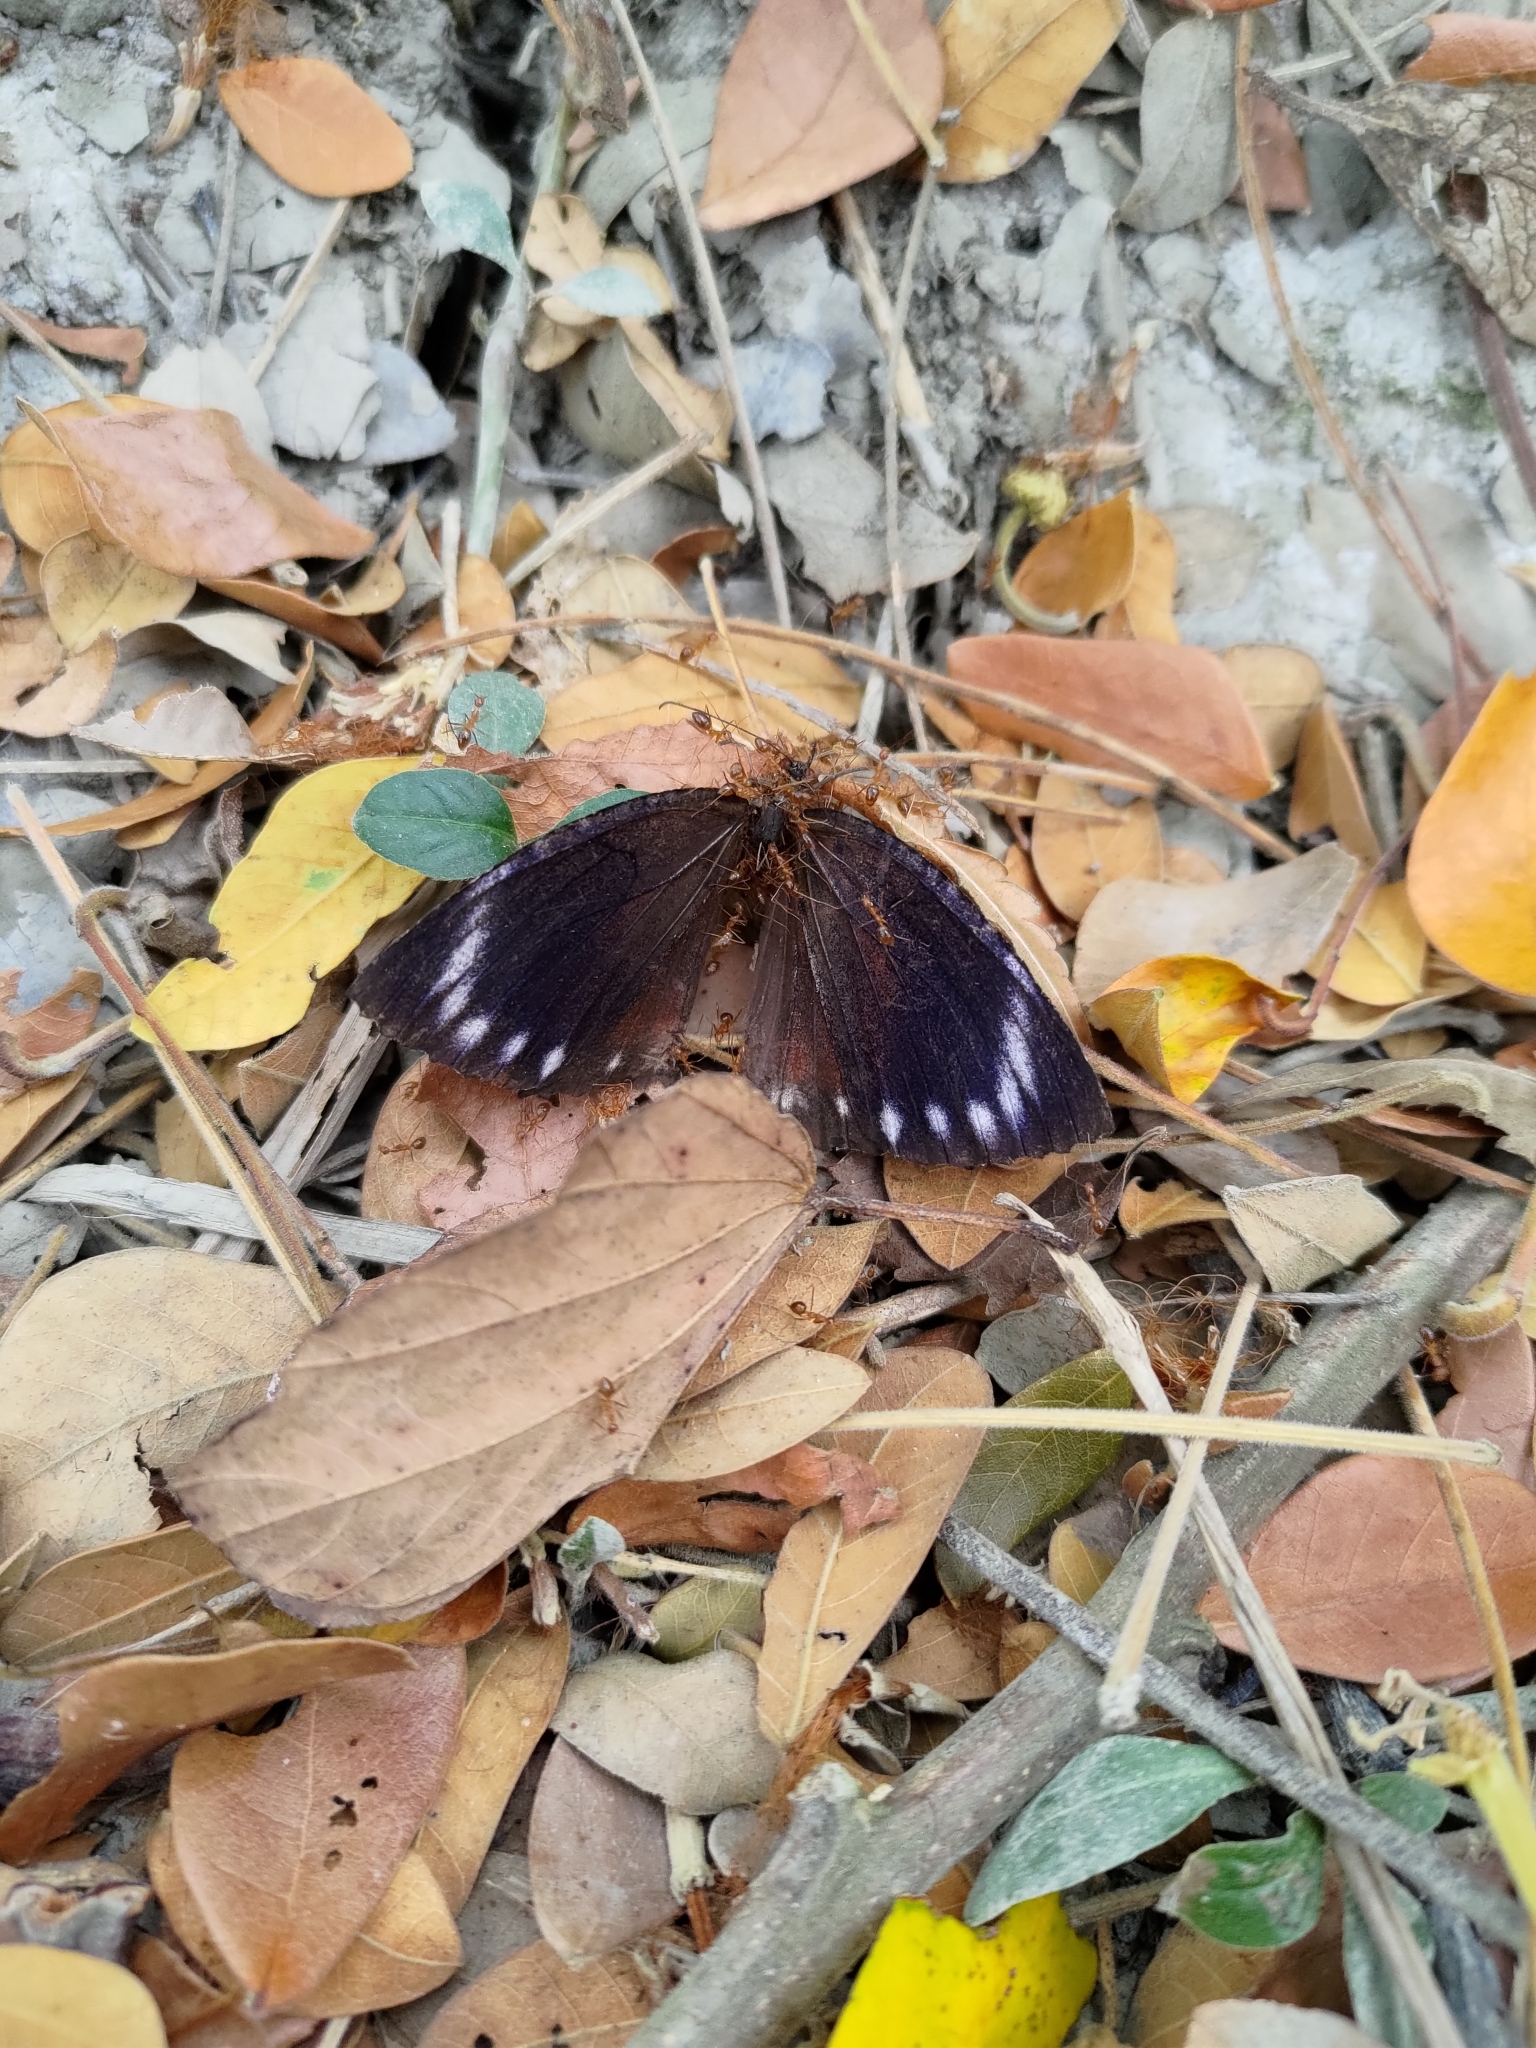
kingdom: Animalia
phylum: Arthropoda
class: Insecta
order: Hymenoptera
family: Formicidae
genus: Anoplolepis
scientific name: Anoplolepis gracilipes
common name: Ant
